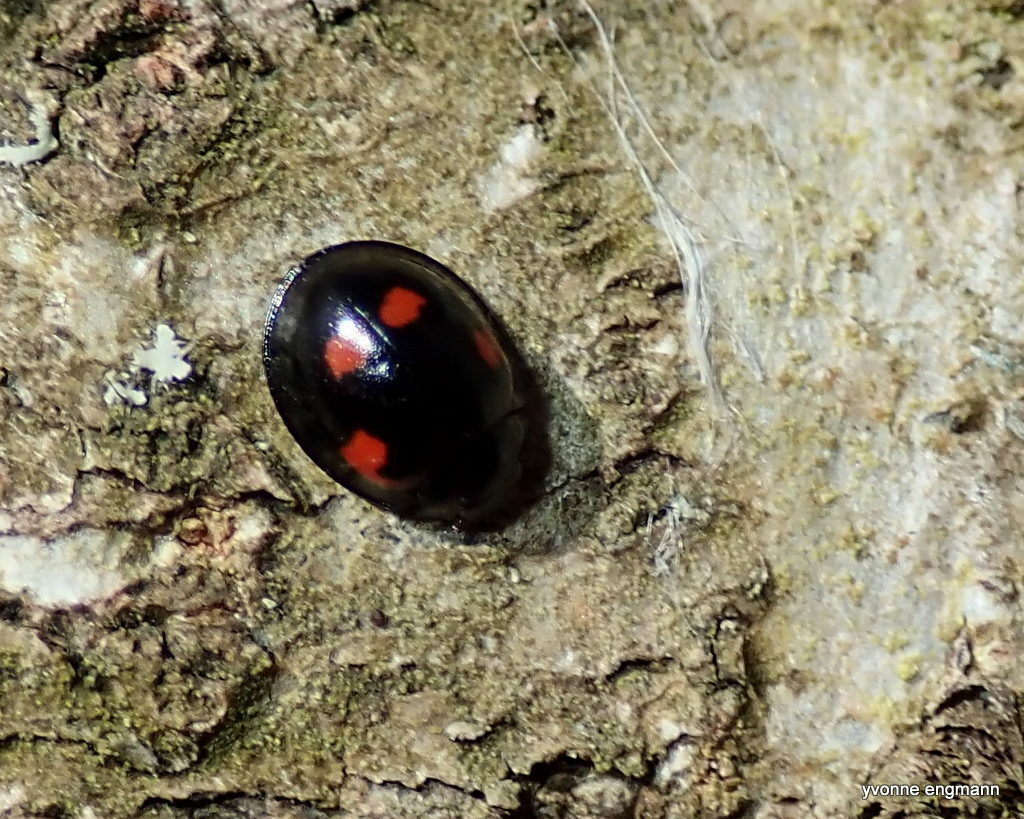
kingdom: Animalia
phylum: Arthropoda
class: Insecta
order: Coleoptera
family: Coccinellidae
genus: Brumus
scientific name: Brumus quadripustulatus
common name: Ladybird beetle
